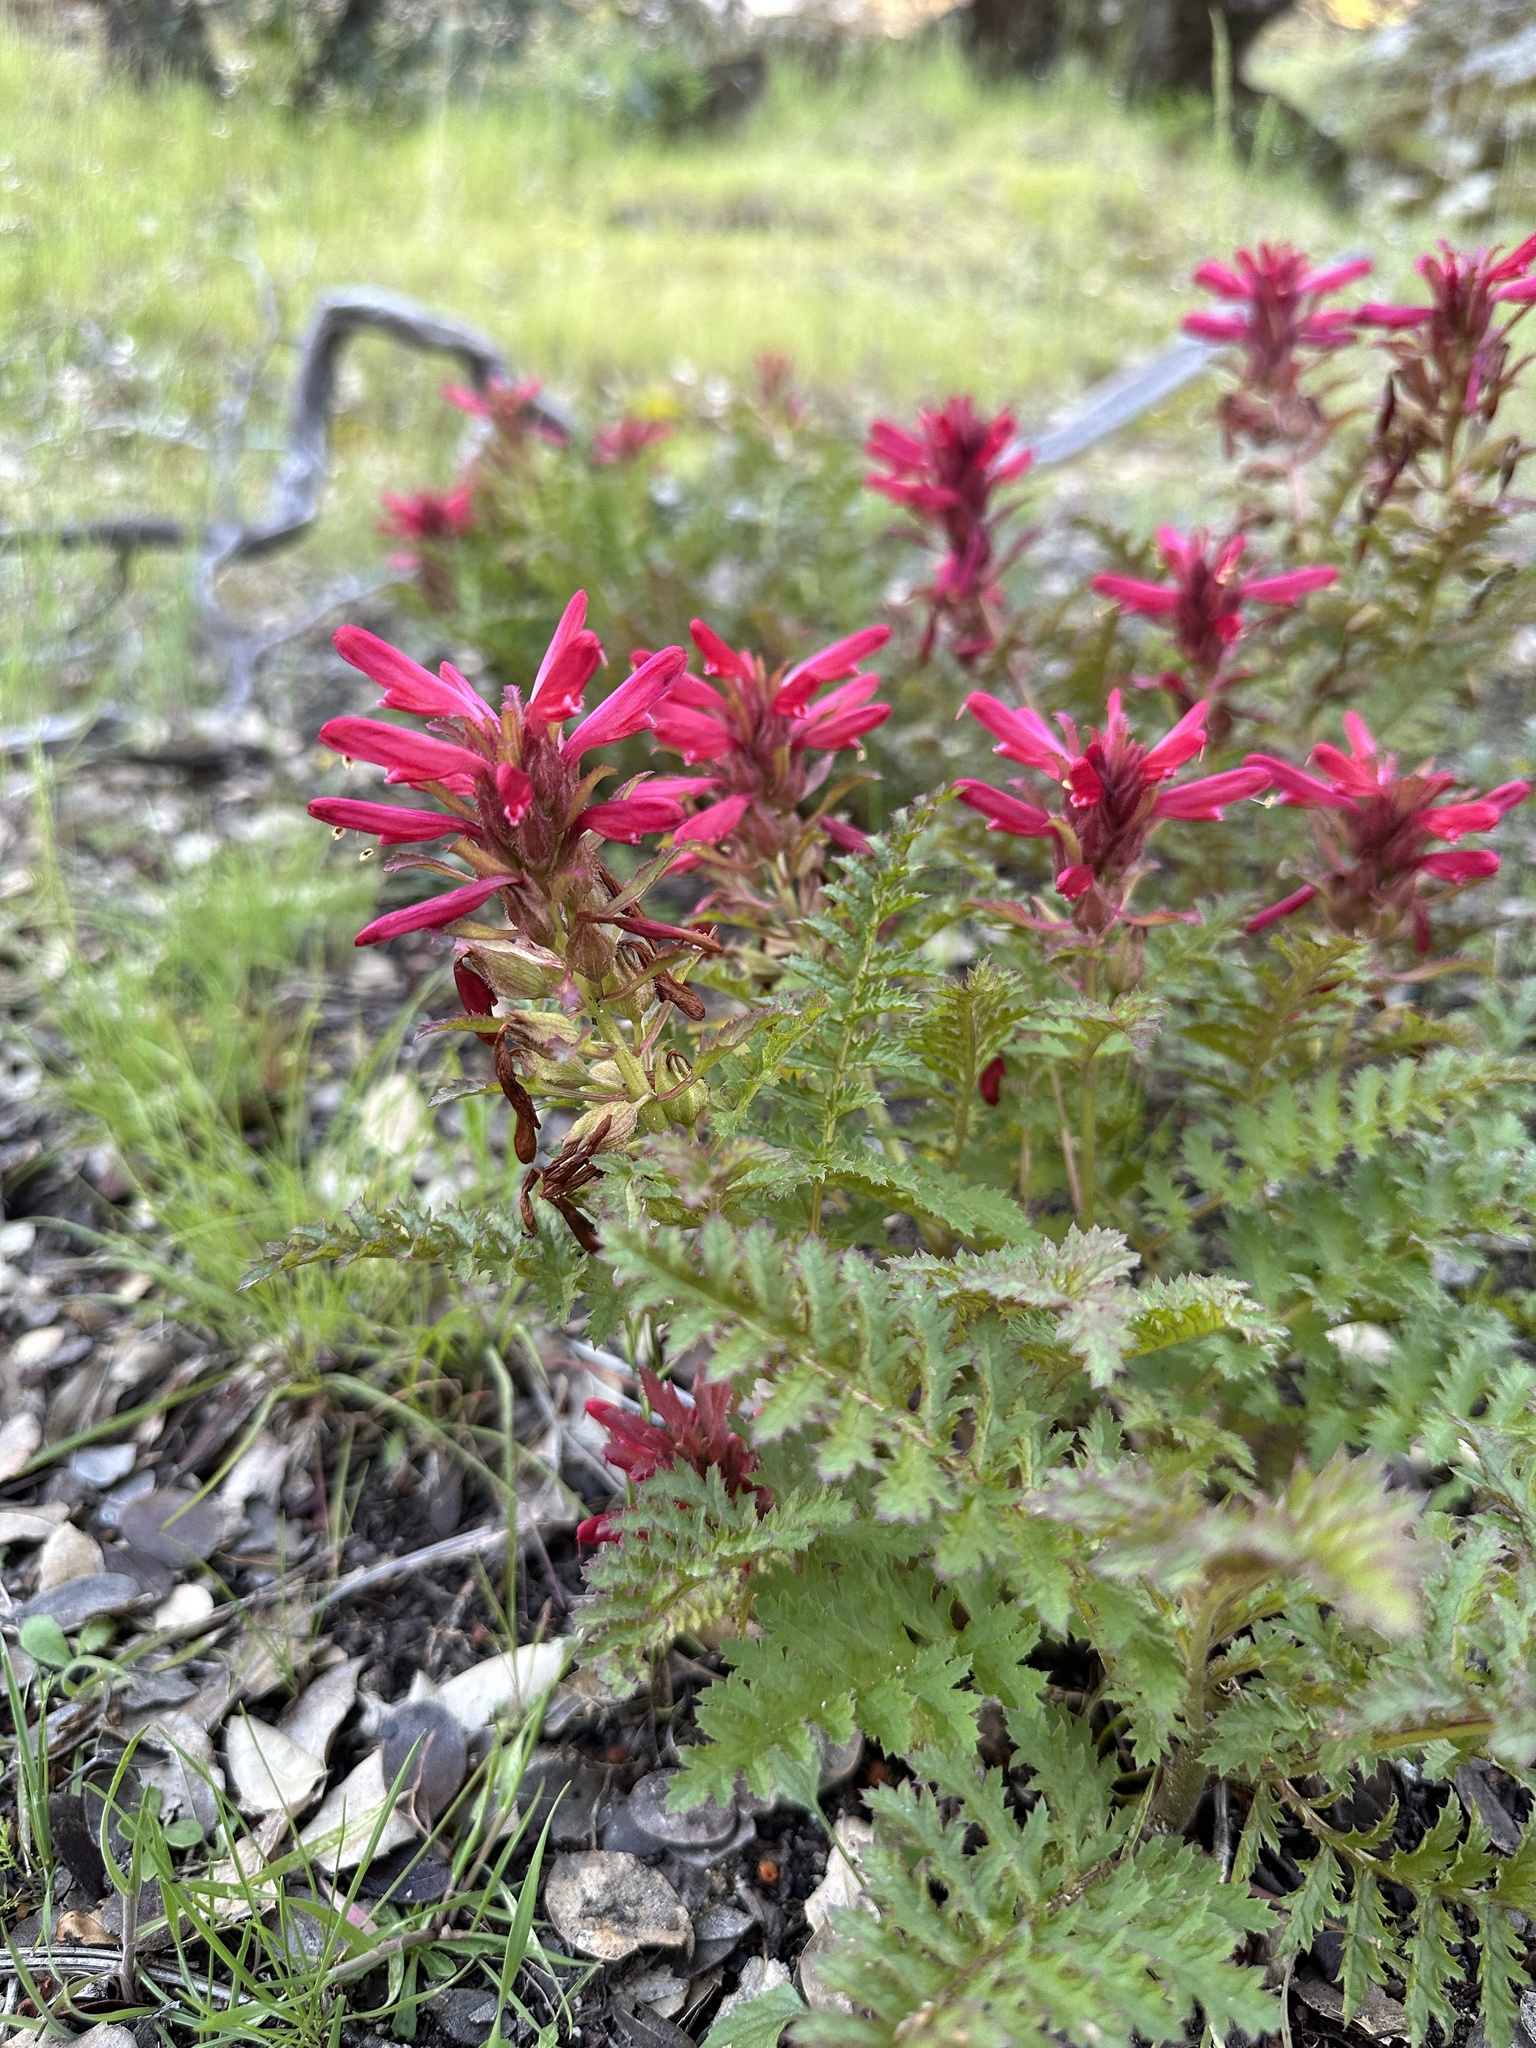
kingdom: Plantae
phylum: Tracheophyta
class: Magnoliopsida
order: Lamiales
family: Orobanchaceae
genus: Pedicularis
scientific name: Pedicularis densiflora
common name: Indian warrior
